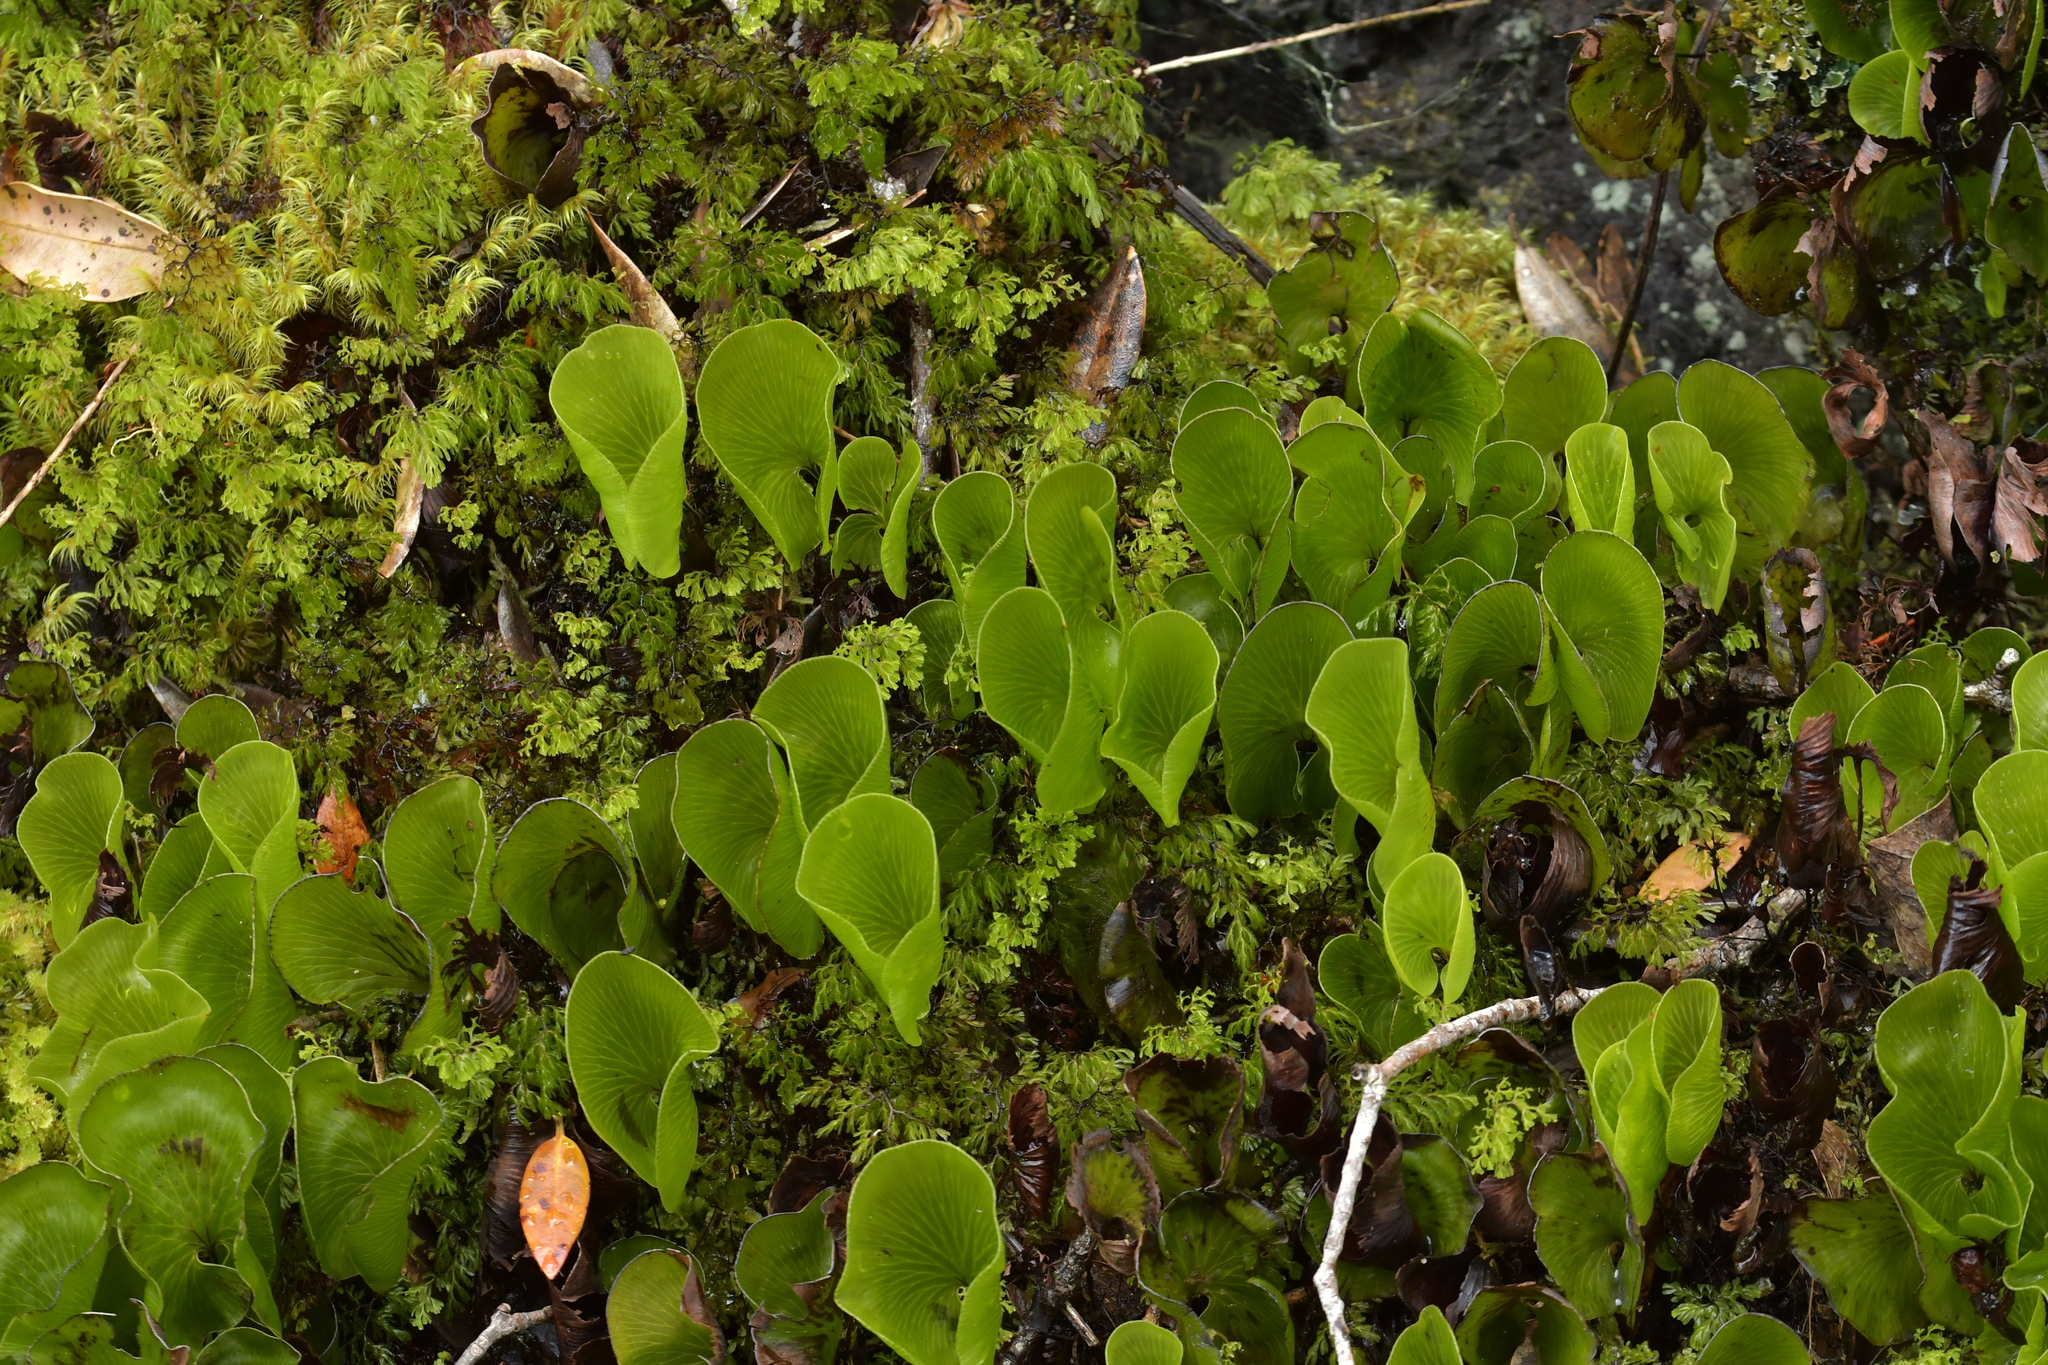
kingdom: Plantae
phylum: Tracheophyta
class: Polypodiopsida
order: Hymenophyllales
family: Hymenophyllaceae
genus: Hymenophyllum
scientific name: Hymenophyllum nephrophyllum
